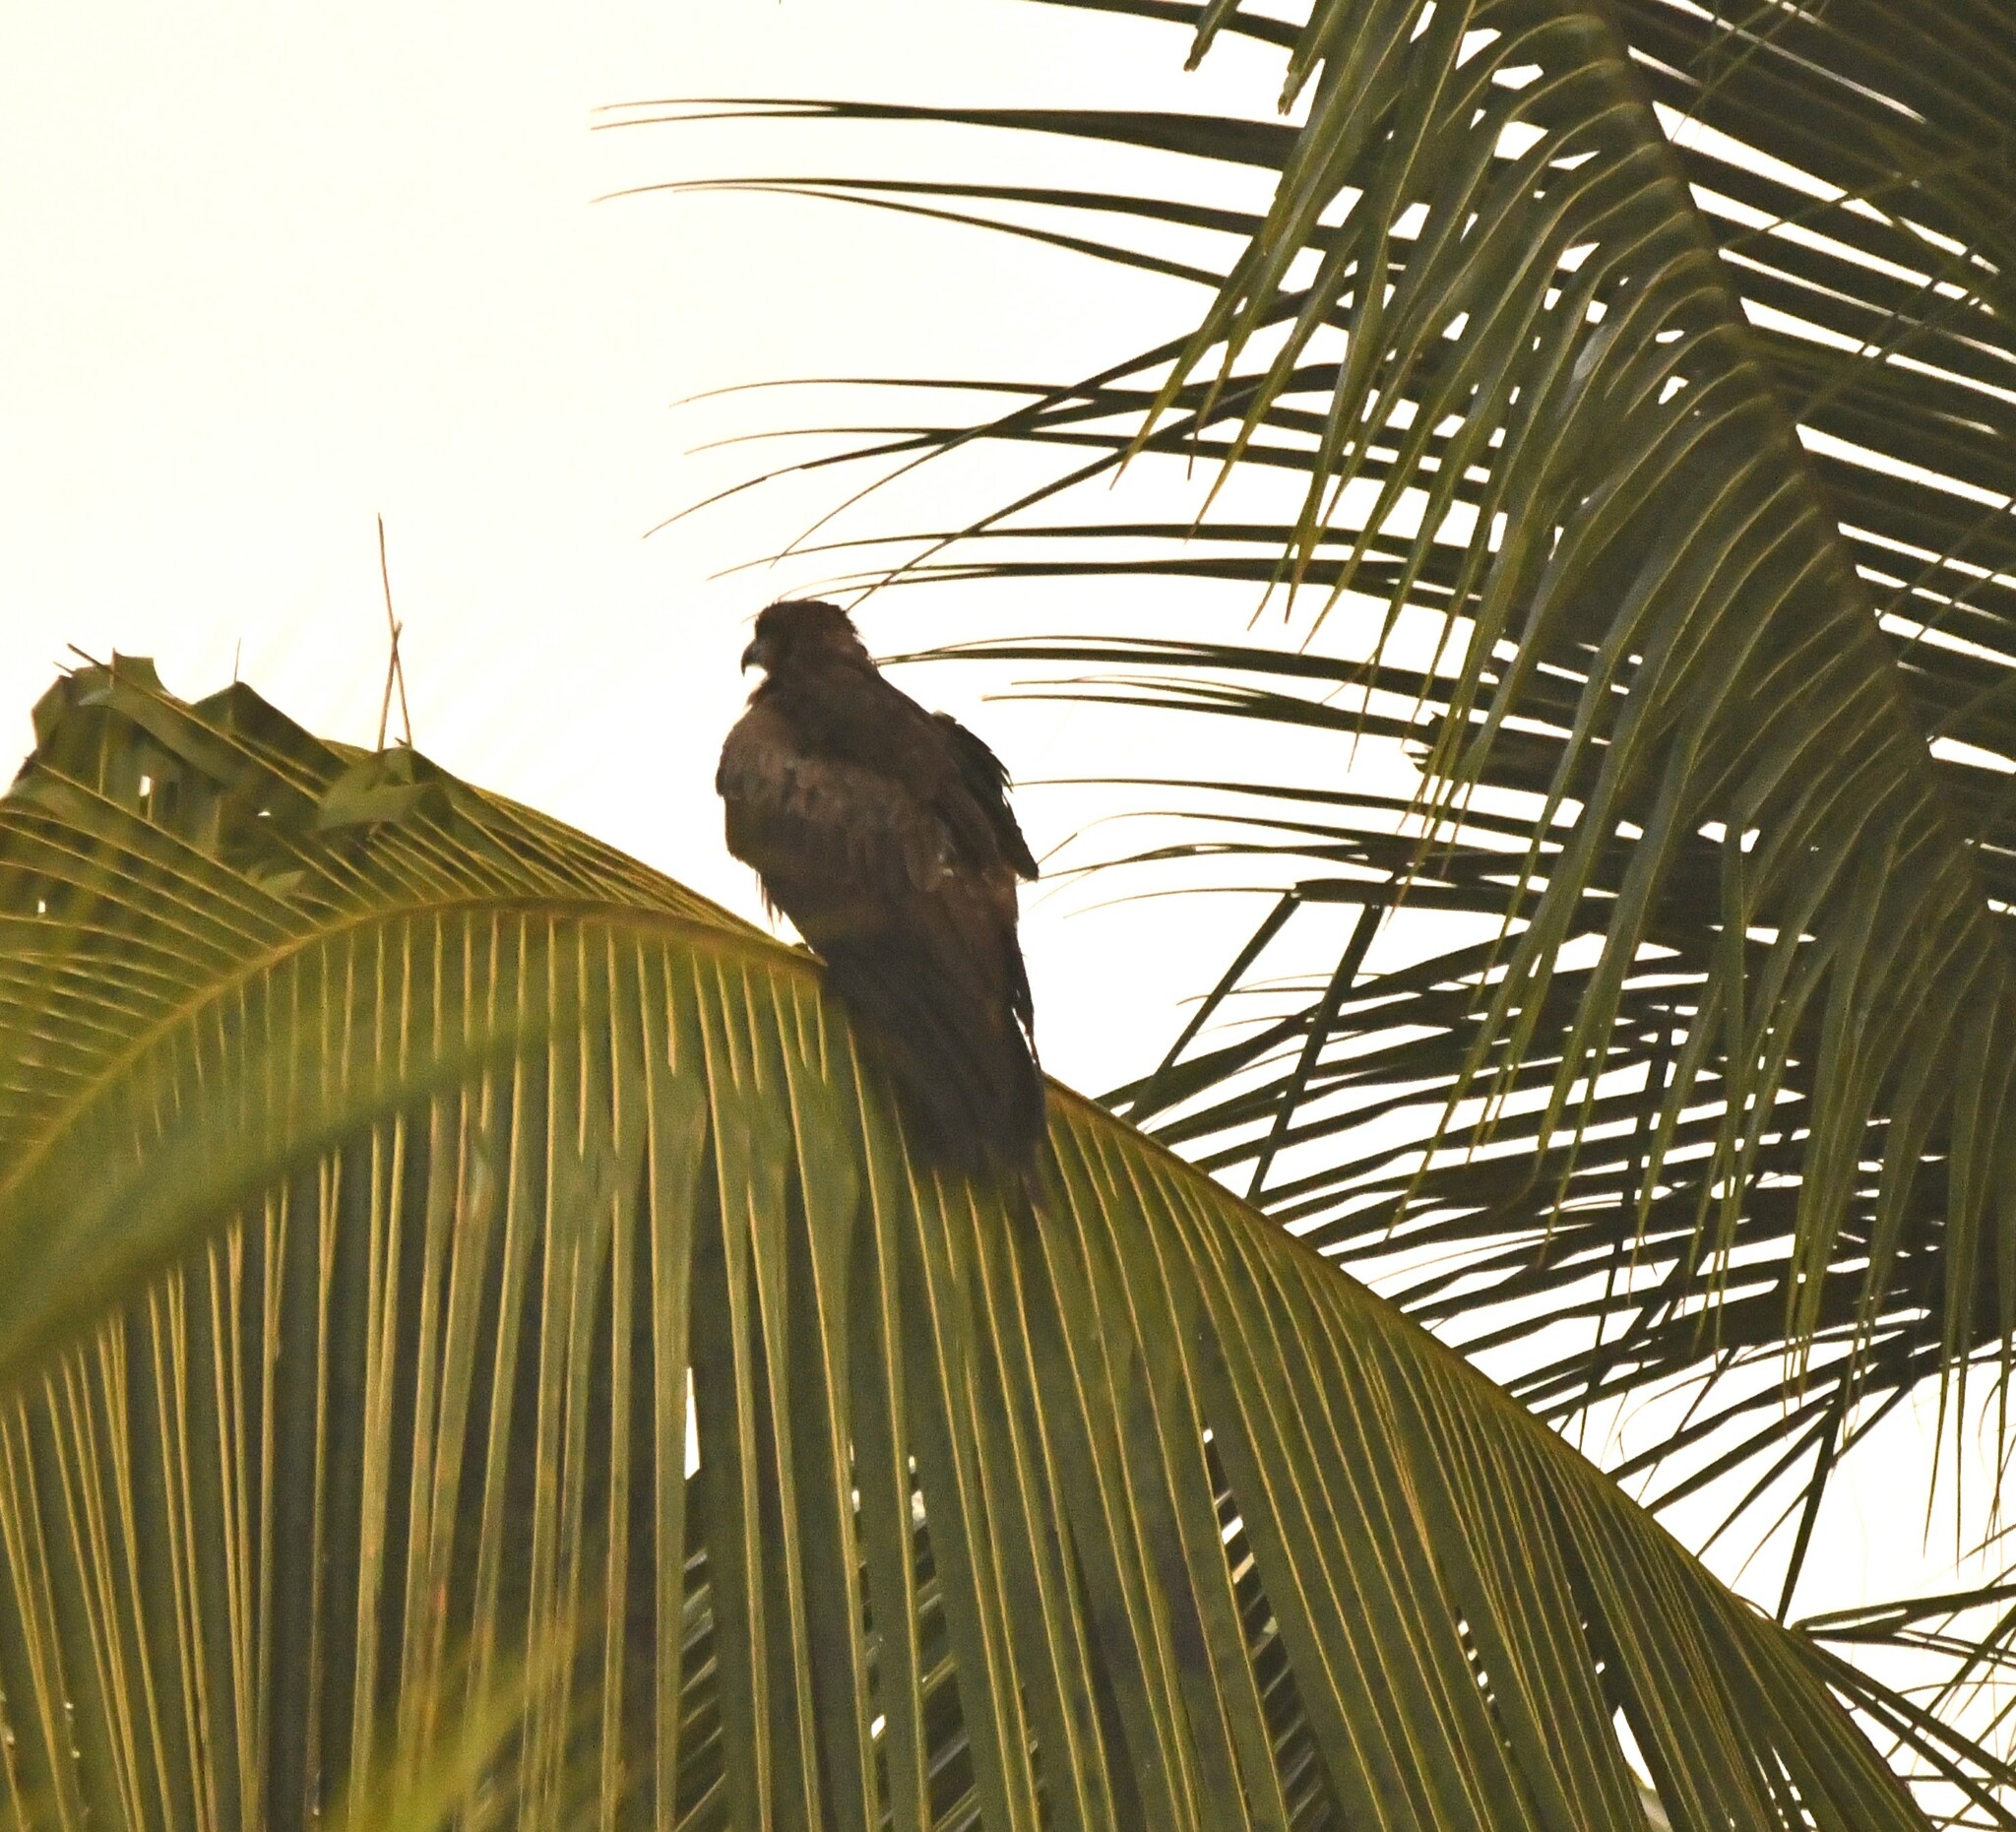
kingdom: Animalia
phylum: Chordata
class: Aves
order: Accipitriformes
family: Accipitridae
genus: Haliastur
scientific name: Haliastur indus
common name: Brahminy kite
